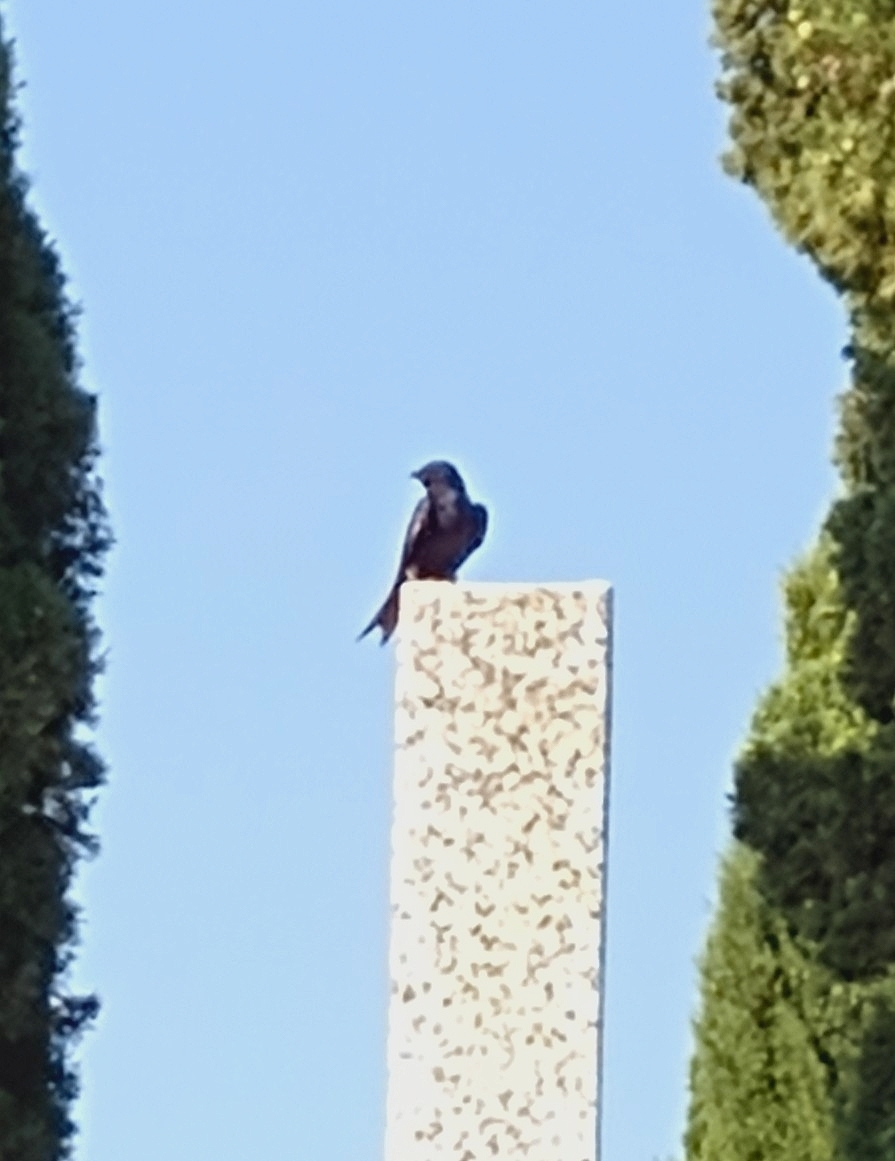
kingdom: Animalia
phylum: Chordata
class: Aves
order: Passeriformes
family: Hirundinidae
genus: Progne
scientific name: Progne elegans
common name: Southern martin
